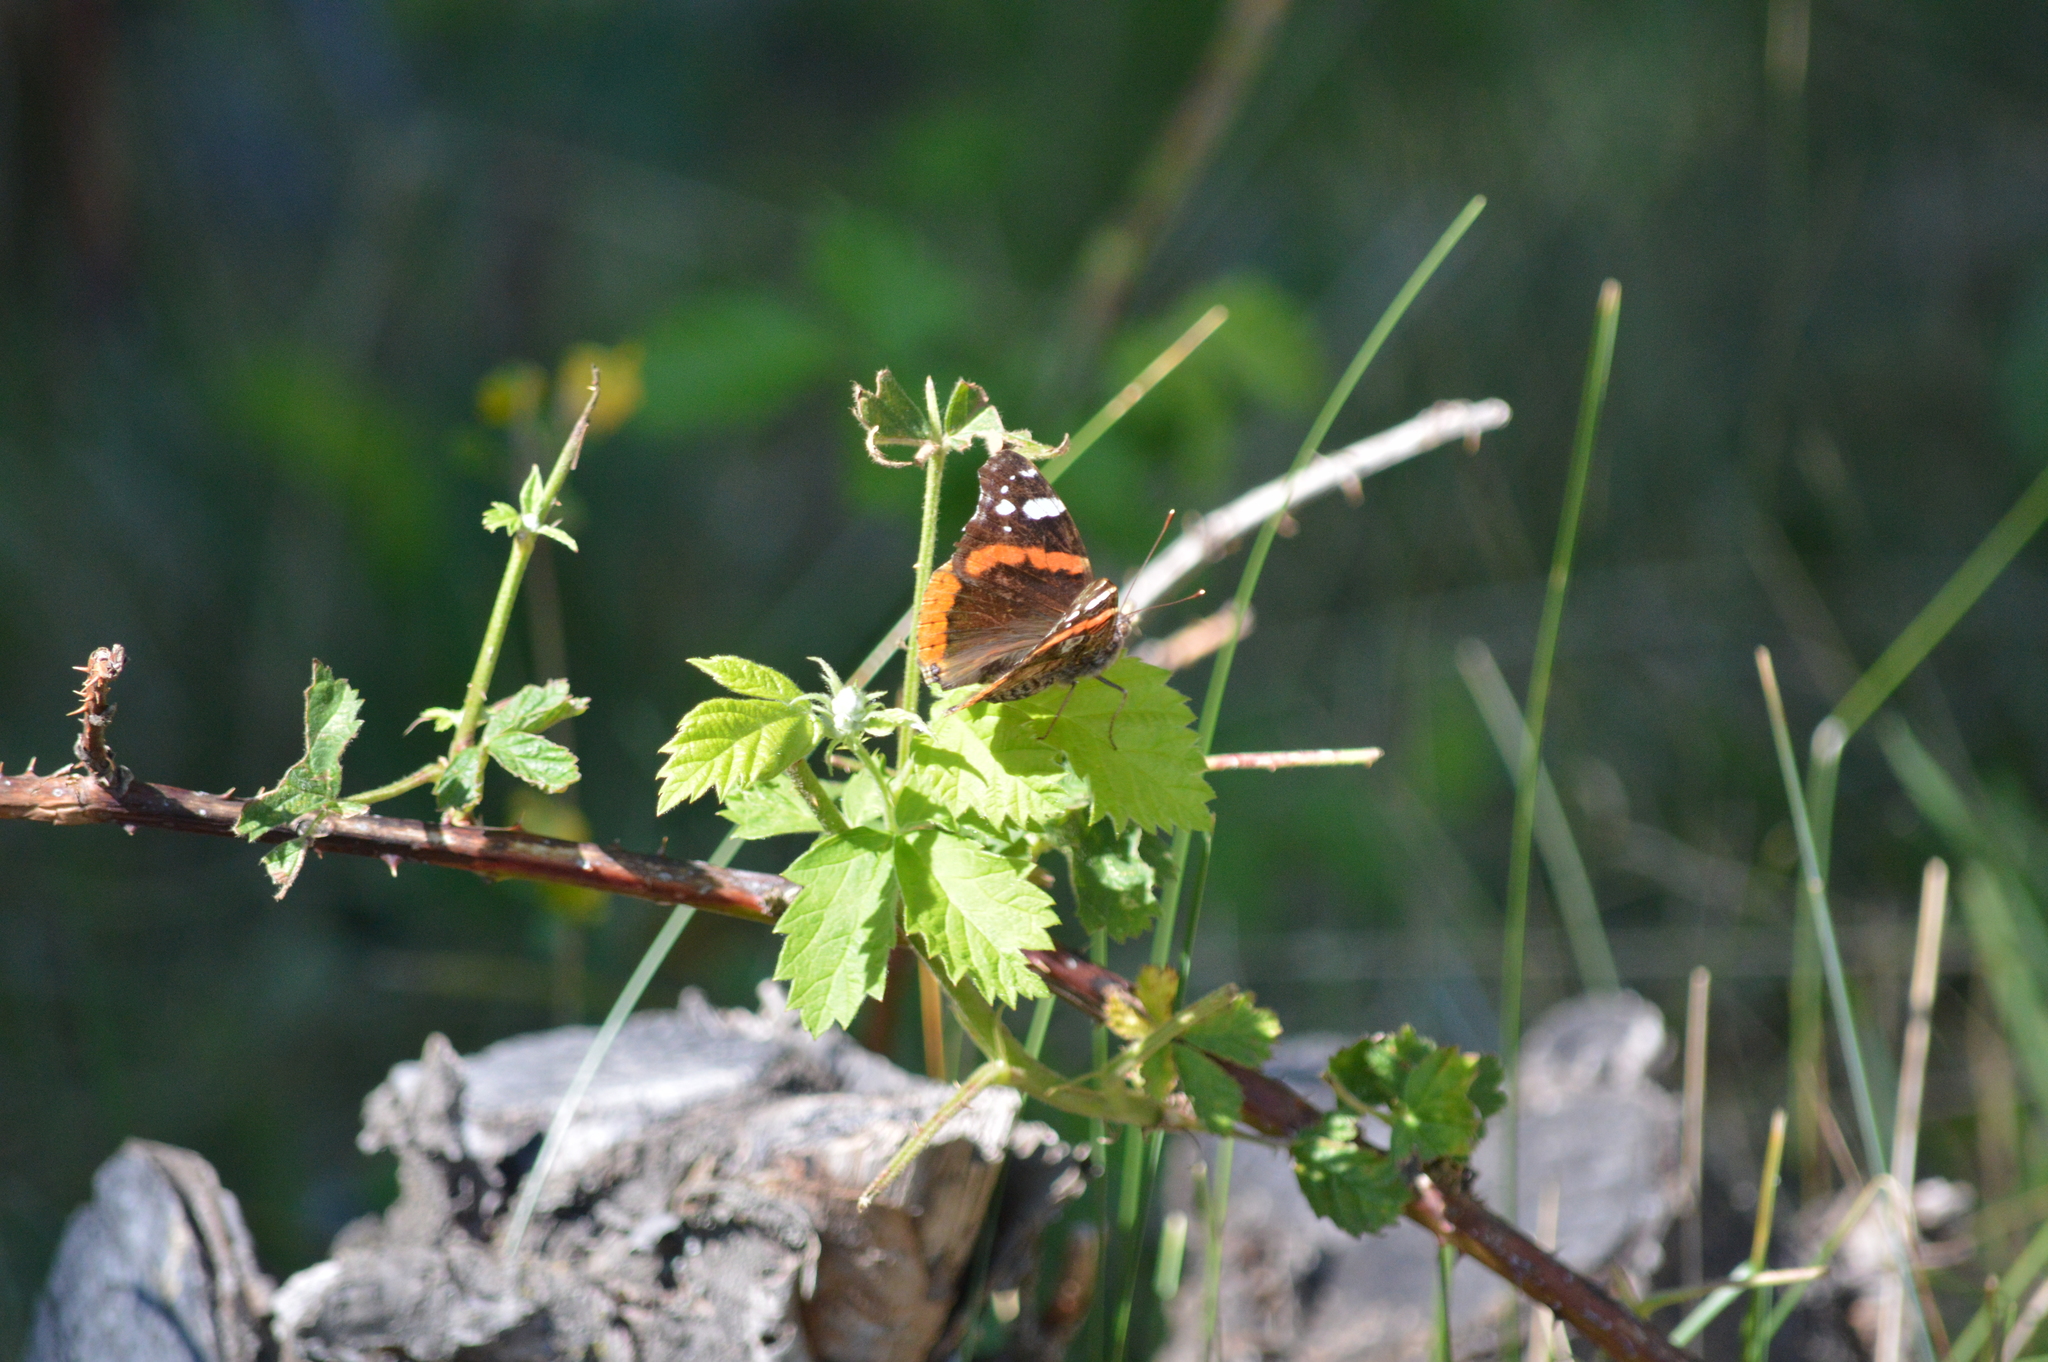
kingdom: Animalia
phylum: Arthropoda
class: Insecta
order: Lepidoptera
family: Nymphalidae
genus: Vanessa
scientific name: Vanessa atalanta
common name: Red admiral
